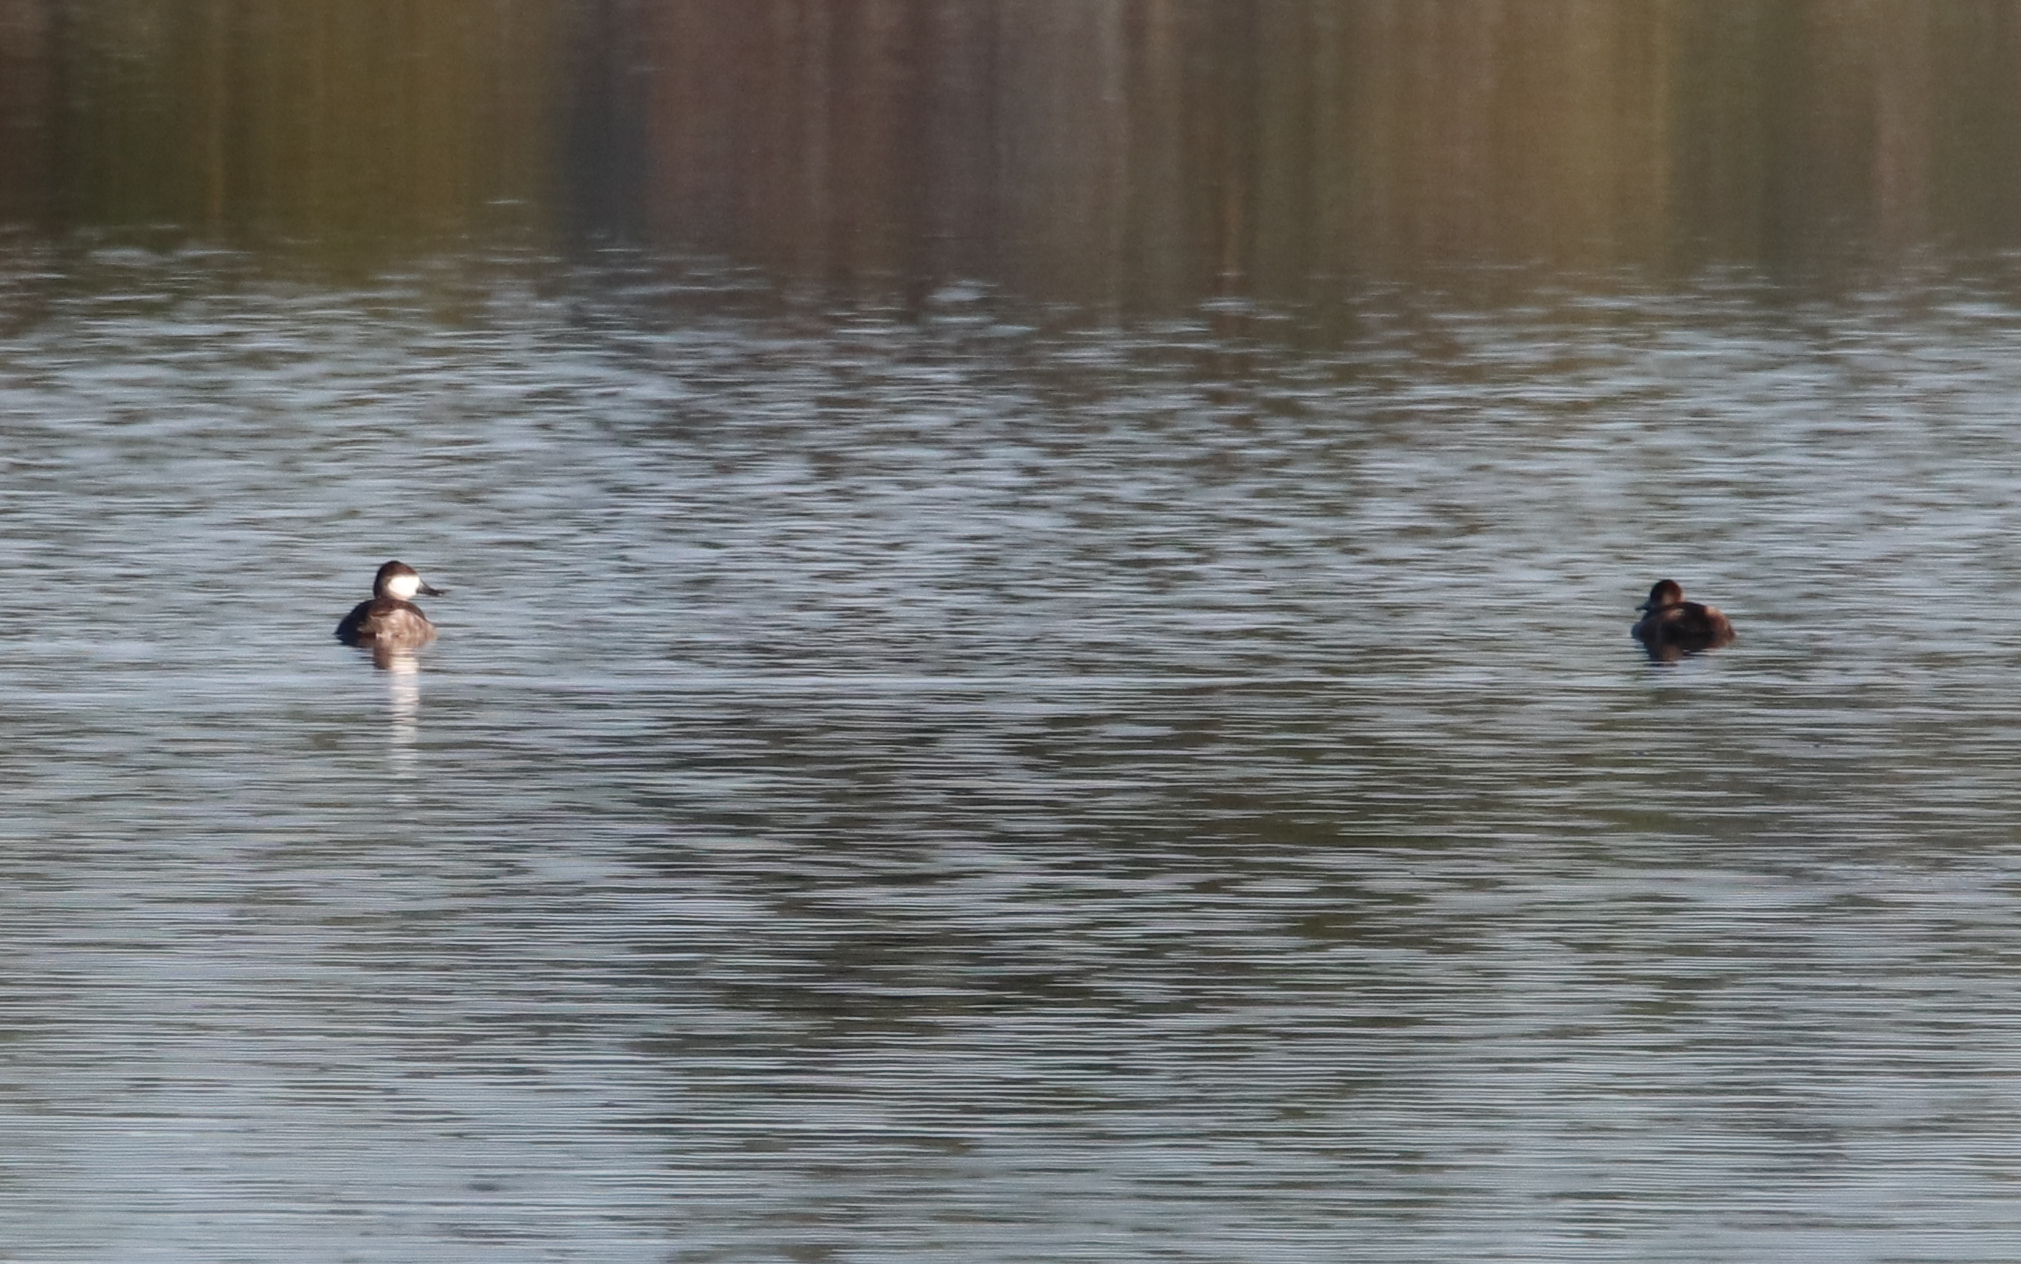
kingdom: Animalia
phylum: Chordata
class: Aves
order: Anseriformes
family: Anatidae
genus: Oxyura
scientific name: Oxyura jamaicensis
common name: Ruddy duck
